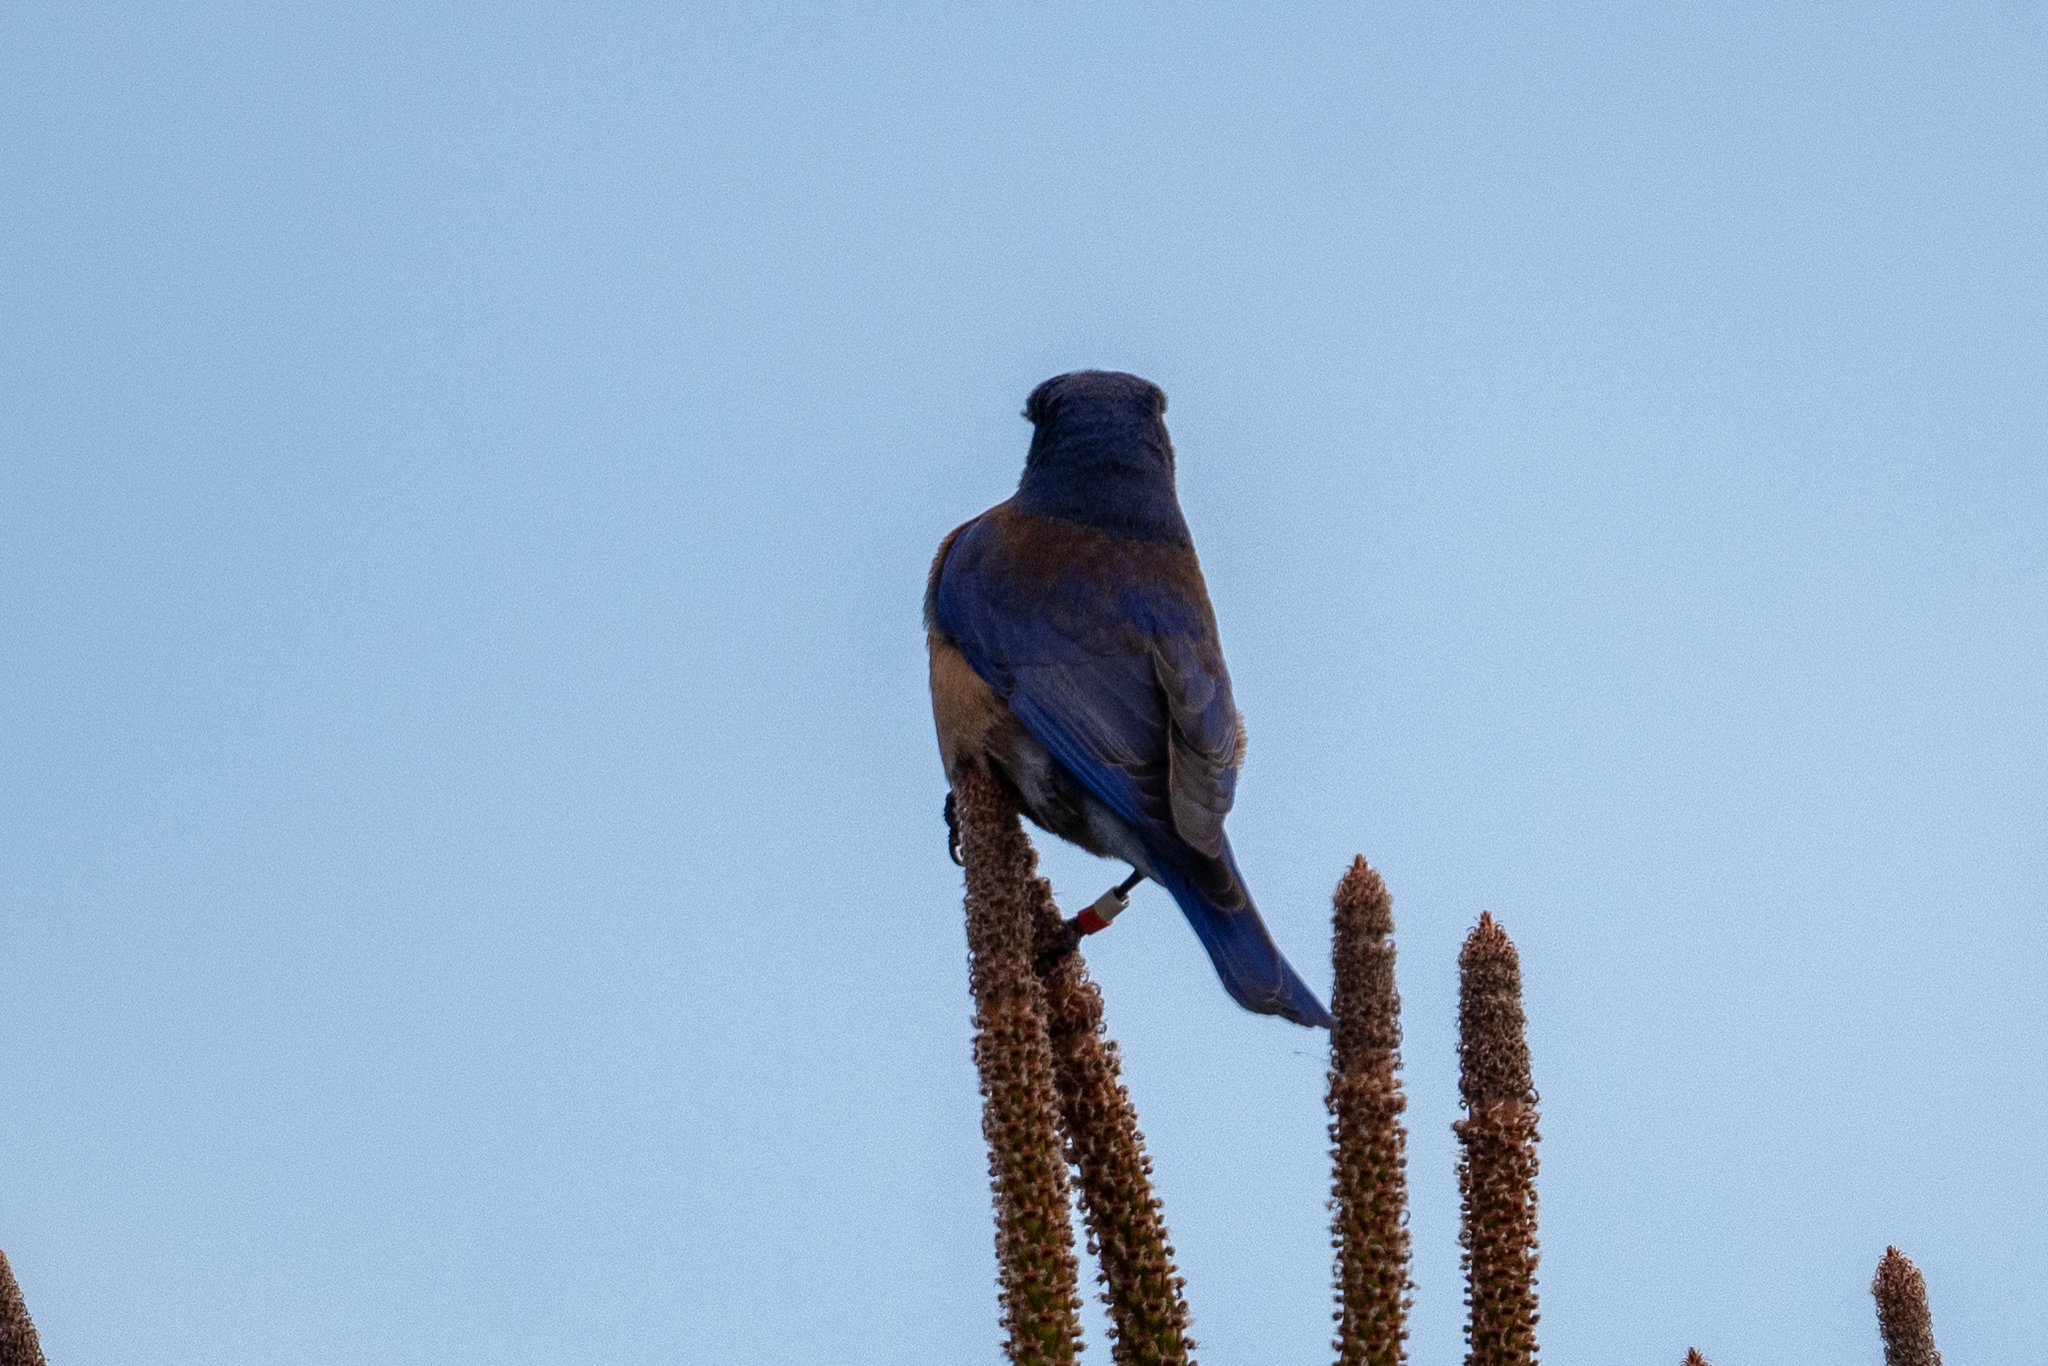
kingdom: Animalia
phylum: Chordata
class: Aves
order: Passeriformes
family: Turdidae
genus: Sialia
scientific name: Sialia mexicana
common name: Western bluebird
